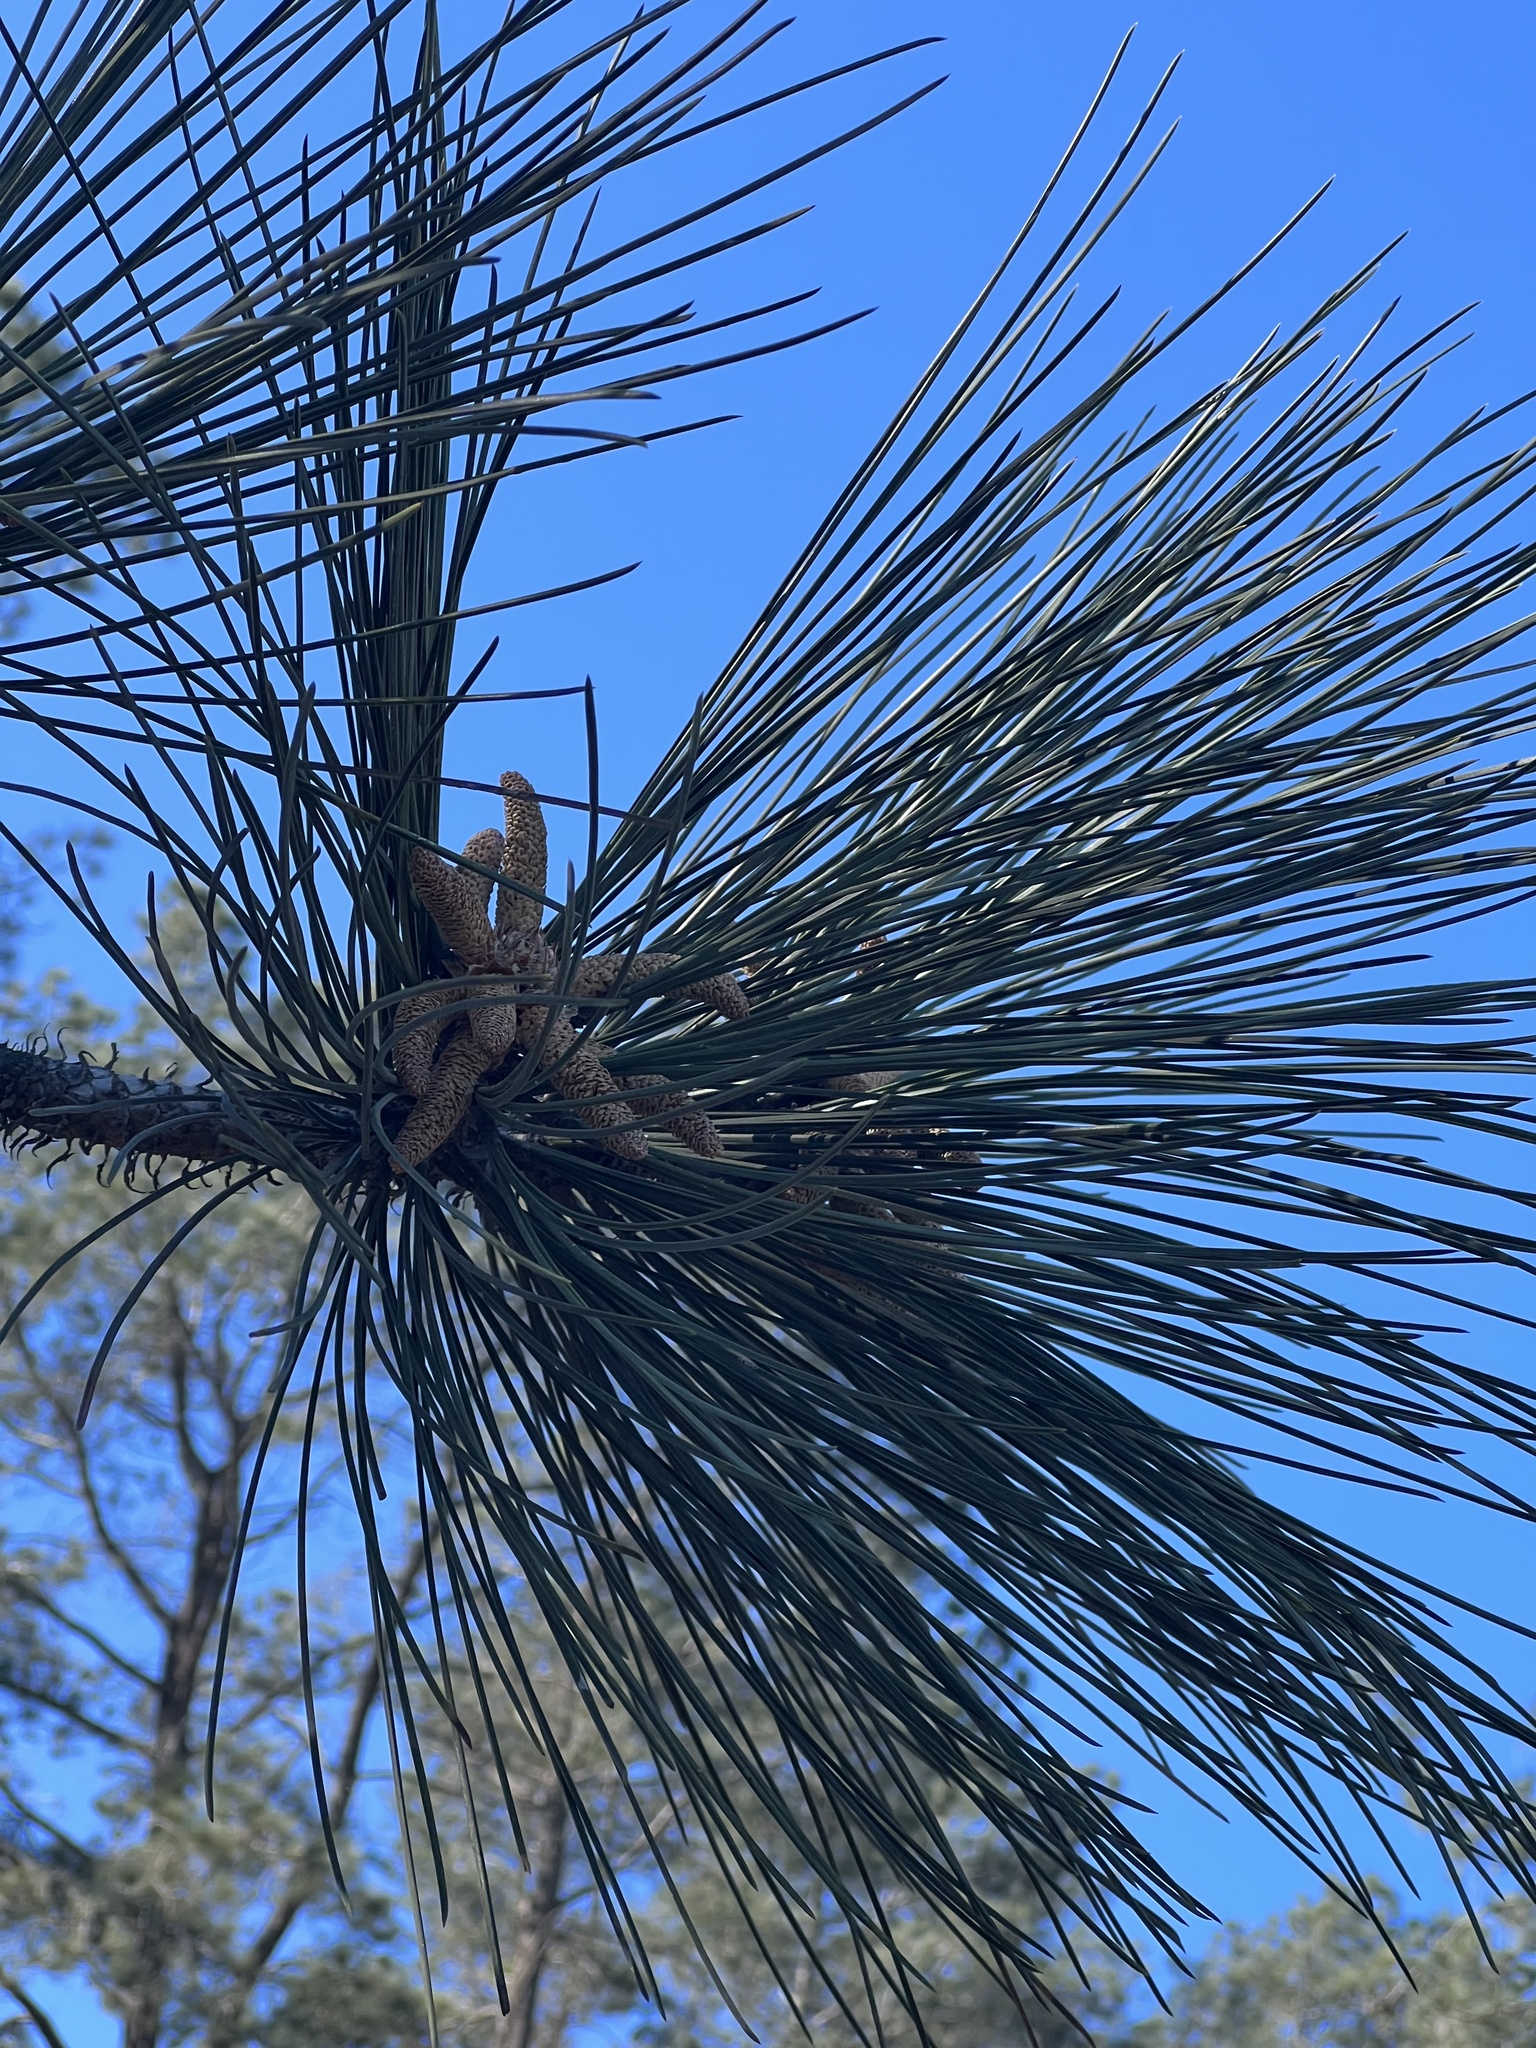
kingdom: Plantae
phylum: Tracheophyta
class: Pinopsida
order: Pinales
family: Pinaceae
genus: Pinus
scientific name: Pinus torreyana
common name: Torrey pine
